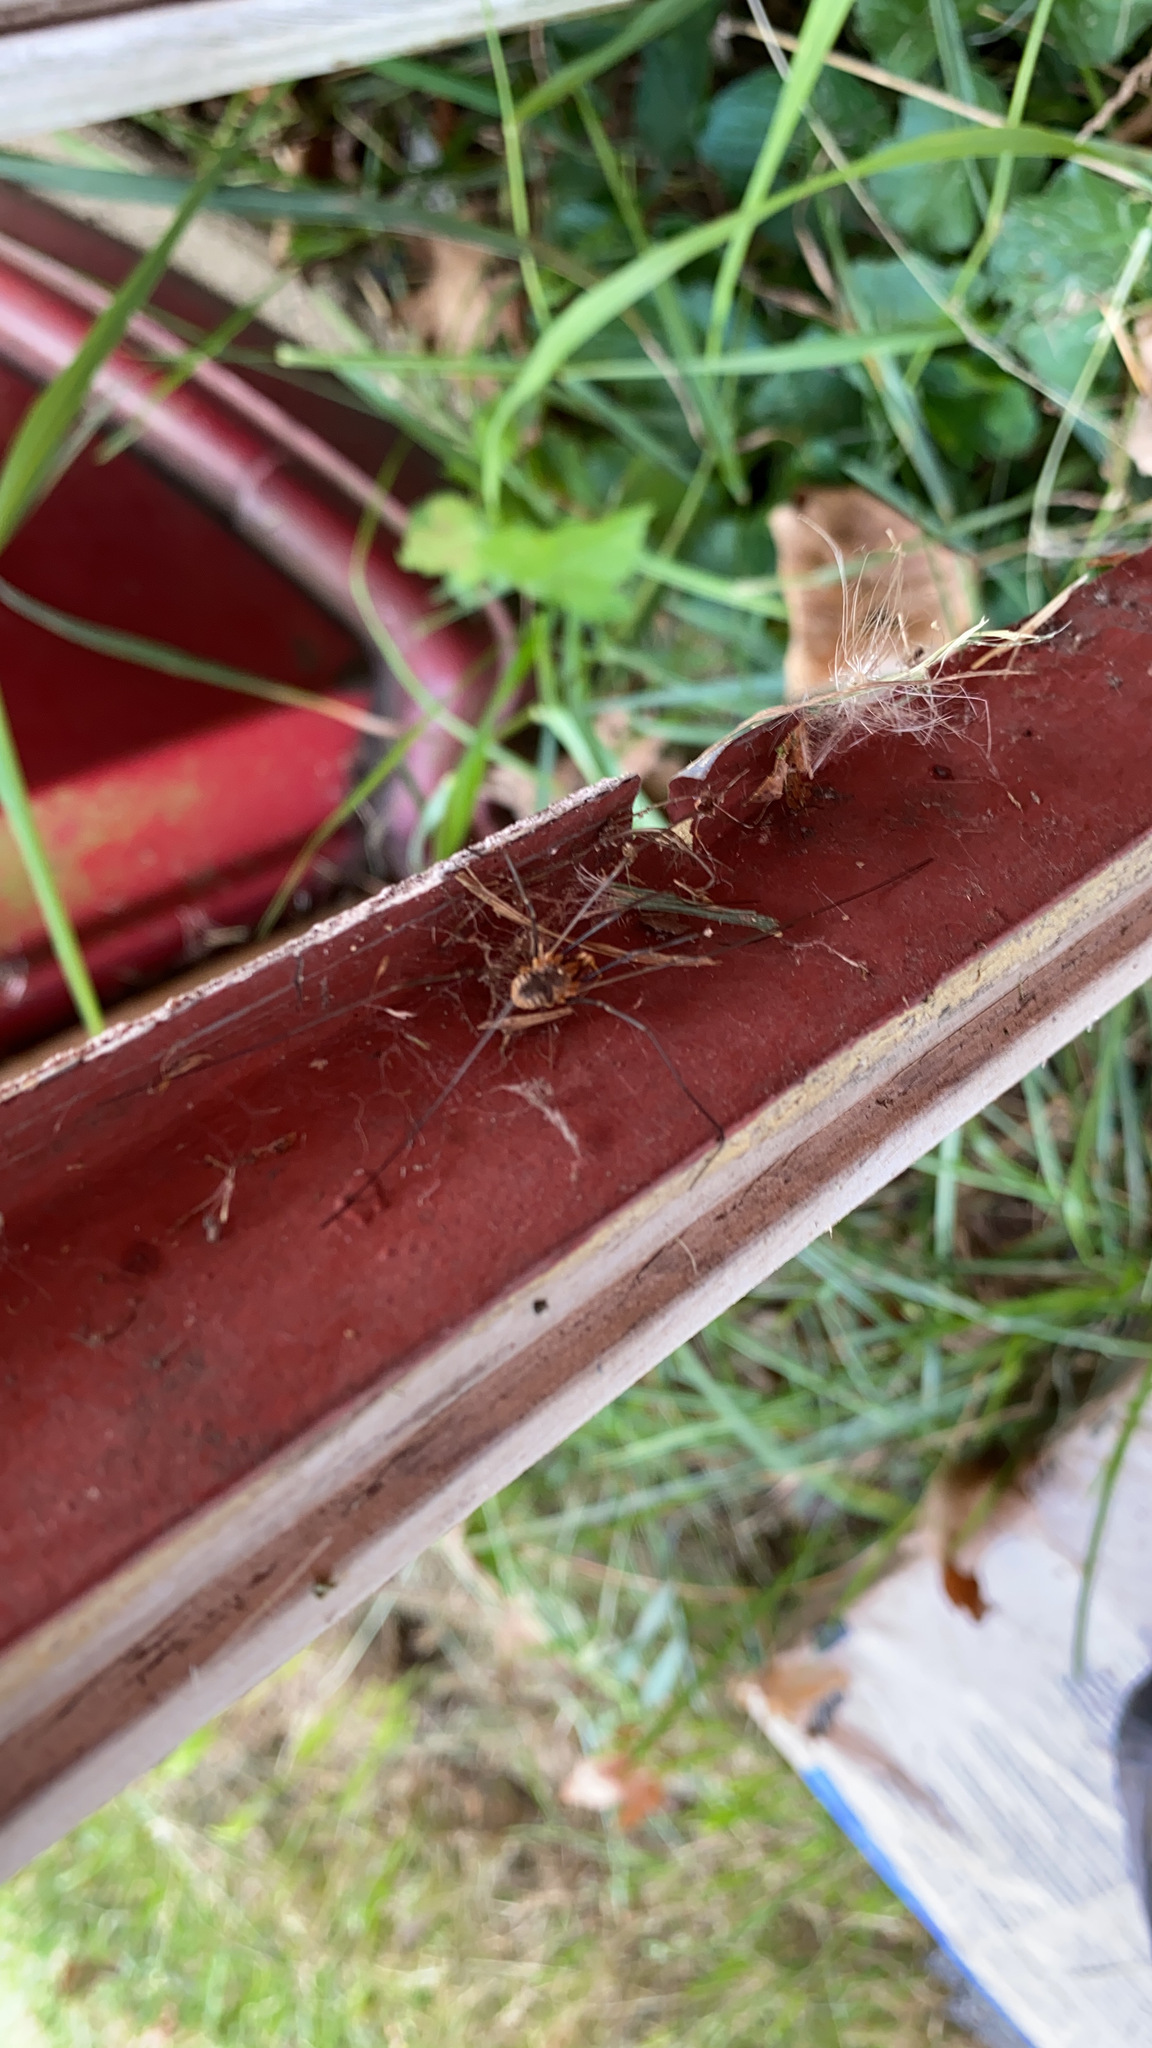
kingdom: Animalia
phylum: Arthropoda
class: Arachnida
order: Opiliones
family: Phalangiidae
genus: Phalangium
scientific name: Phalangium opilio
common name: Daddy longleg
